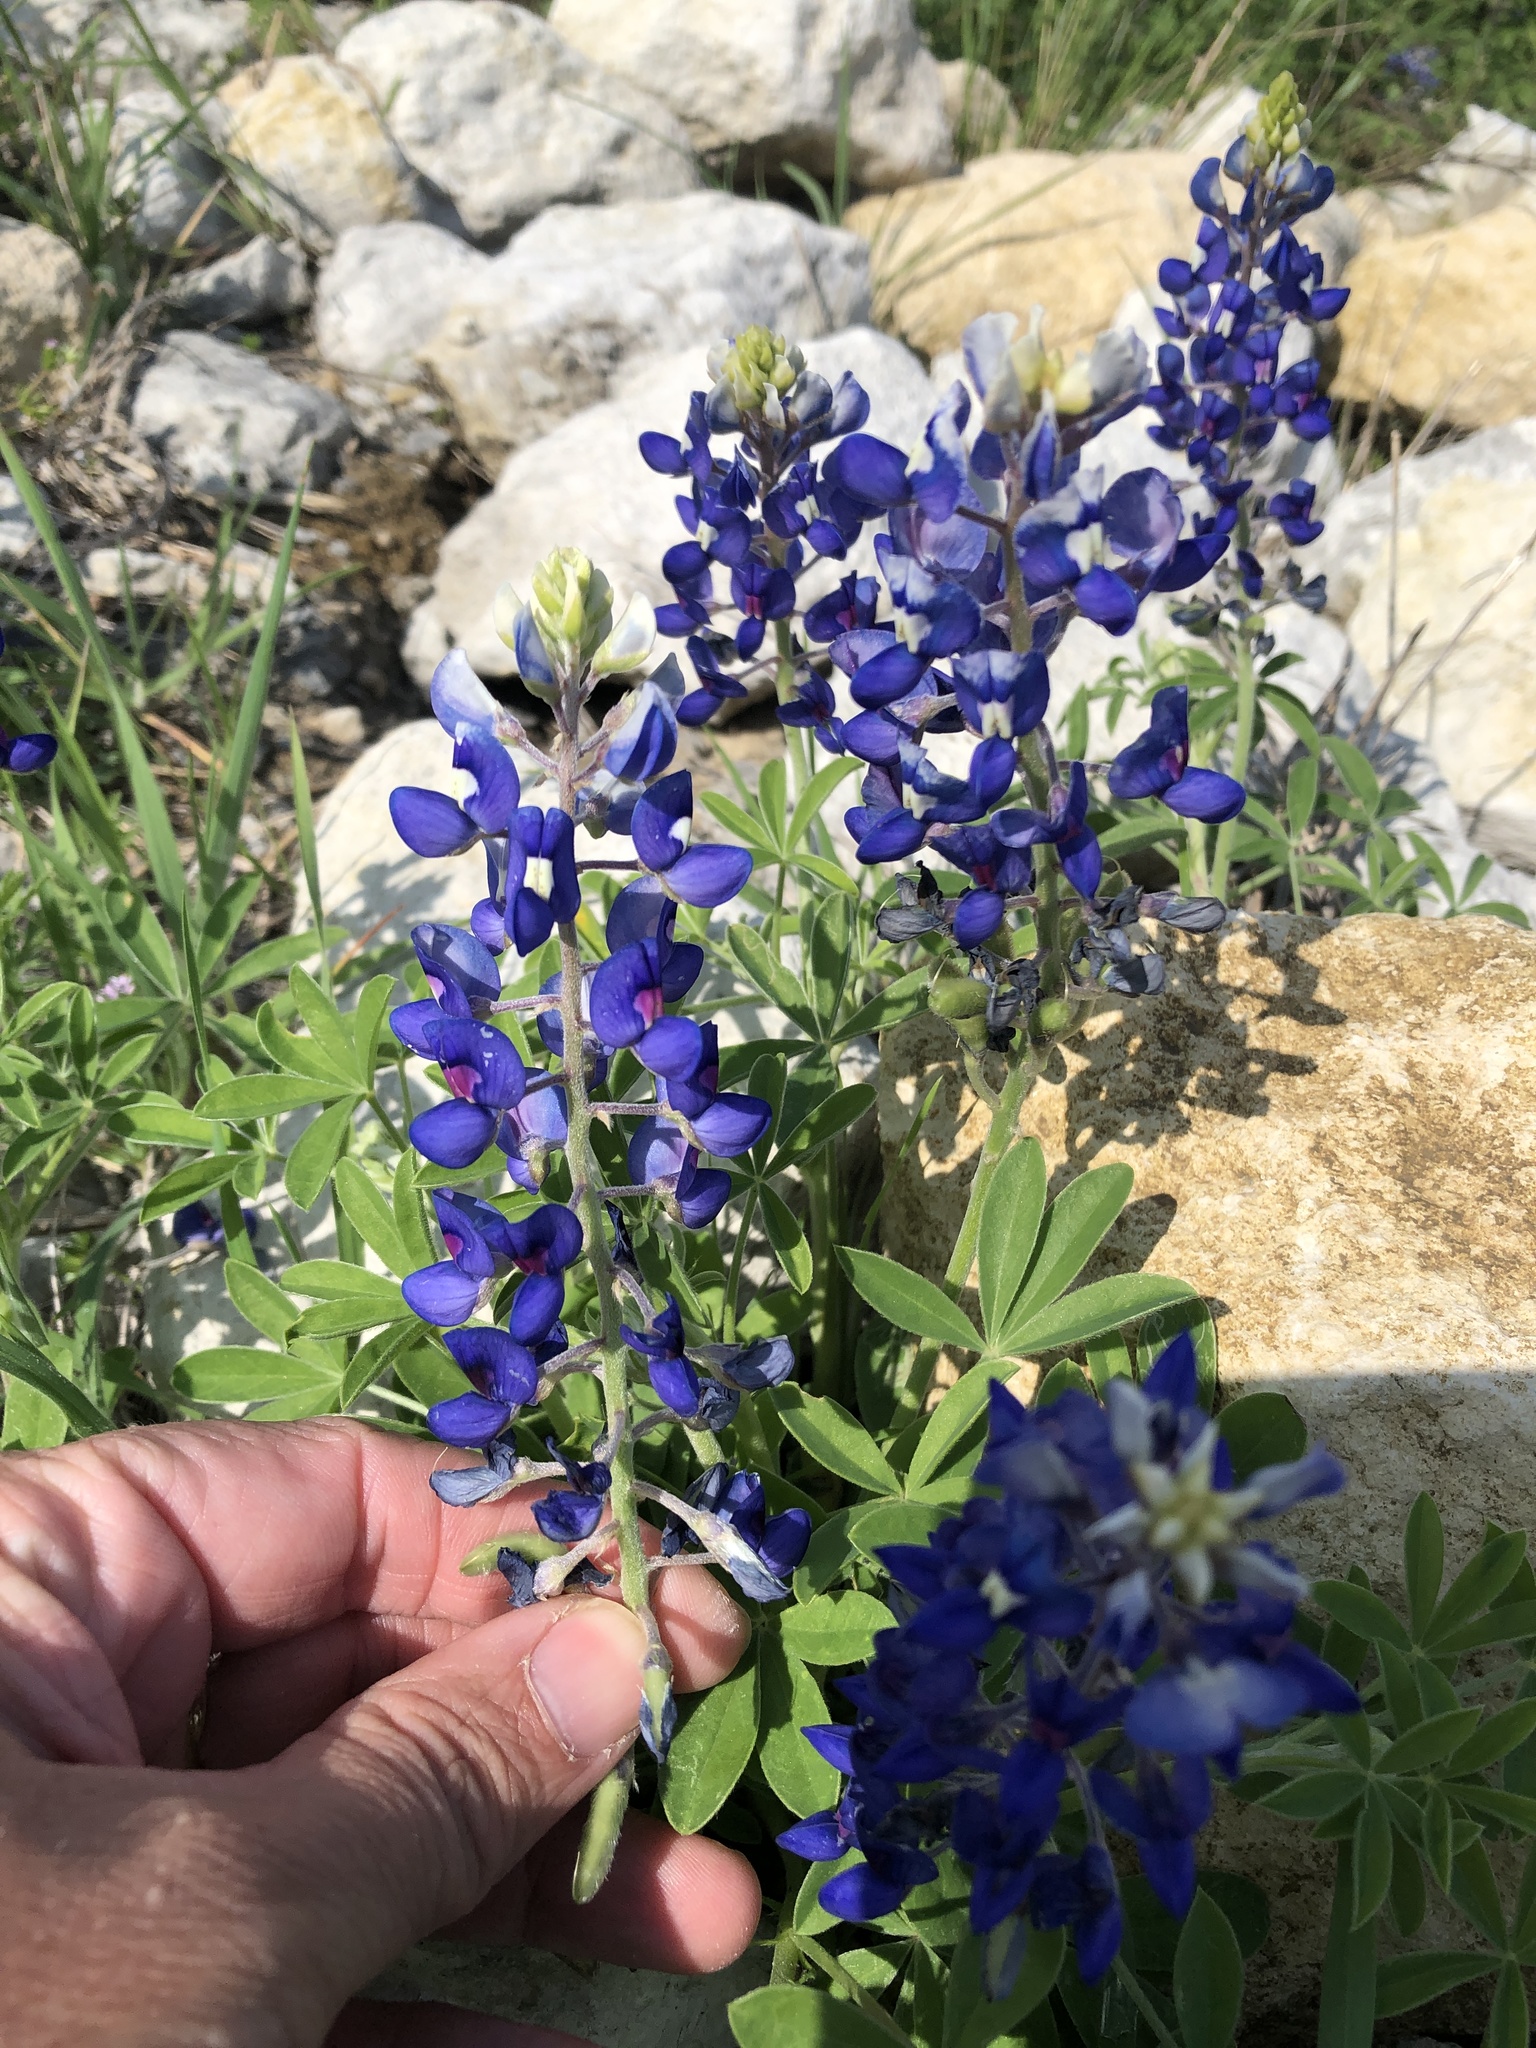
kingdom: Plantae
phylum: Tracheophyta
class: Magnoliopsida
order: Fabales
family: Fabaceae
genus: Lupinus
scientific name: Lupinus texensis
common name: Texas bluebonnet
